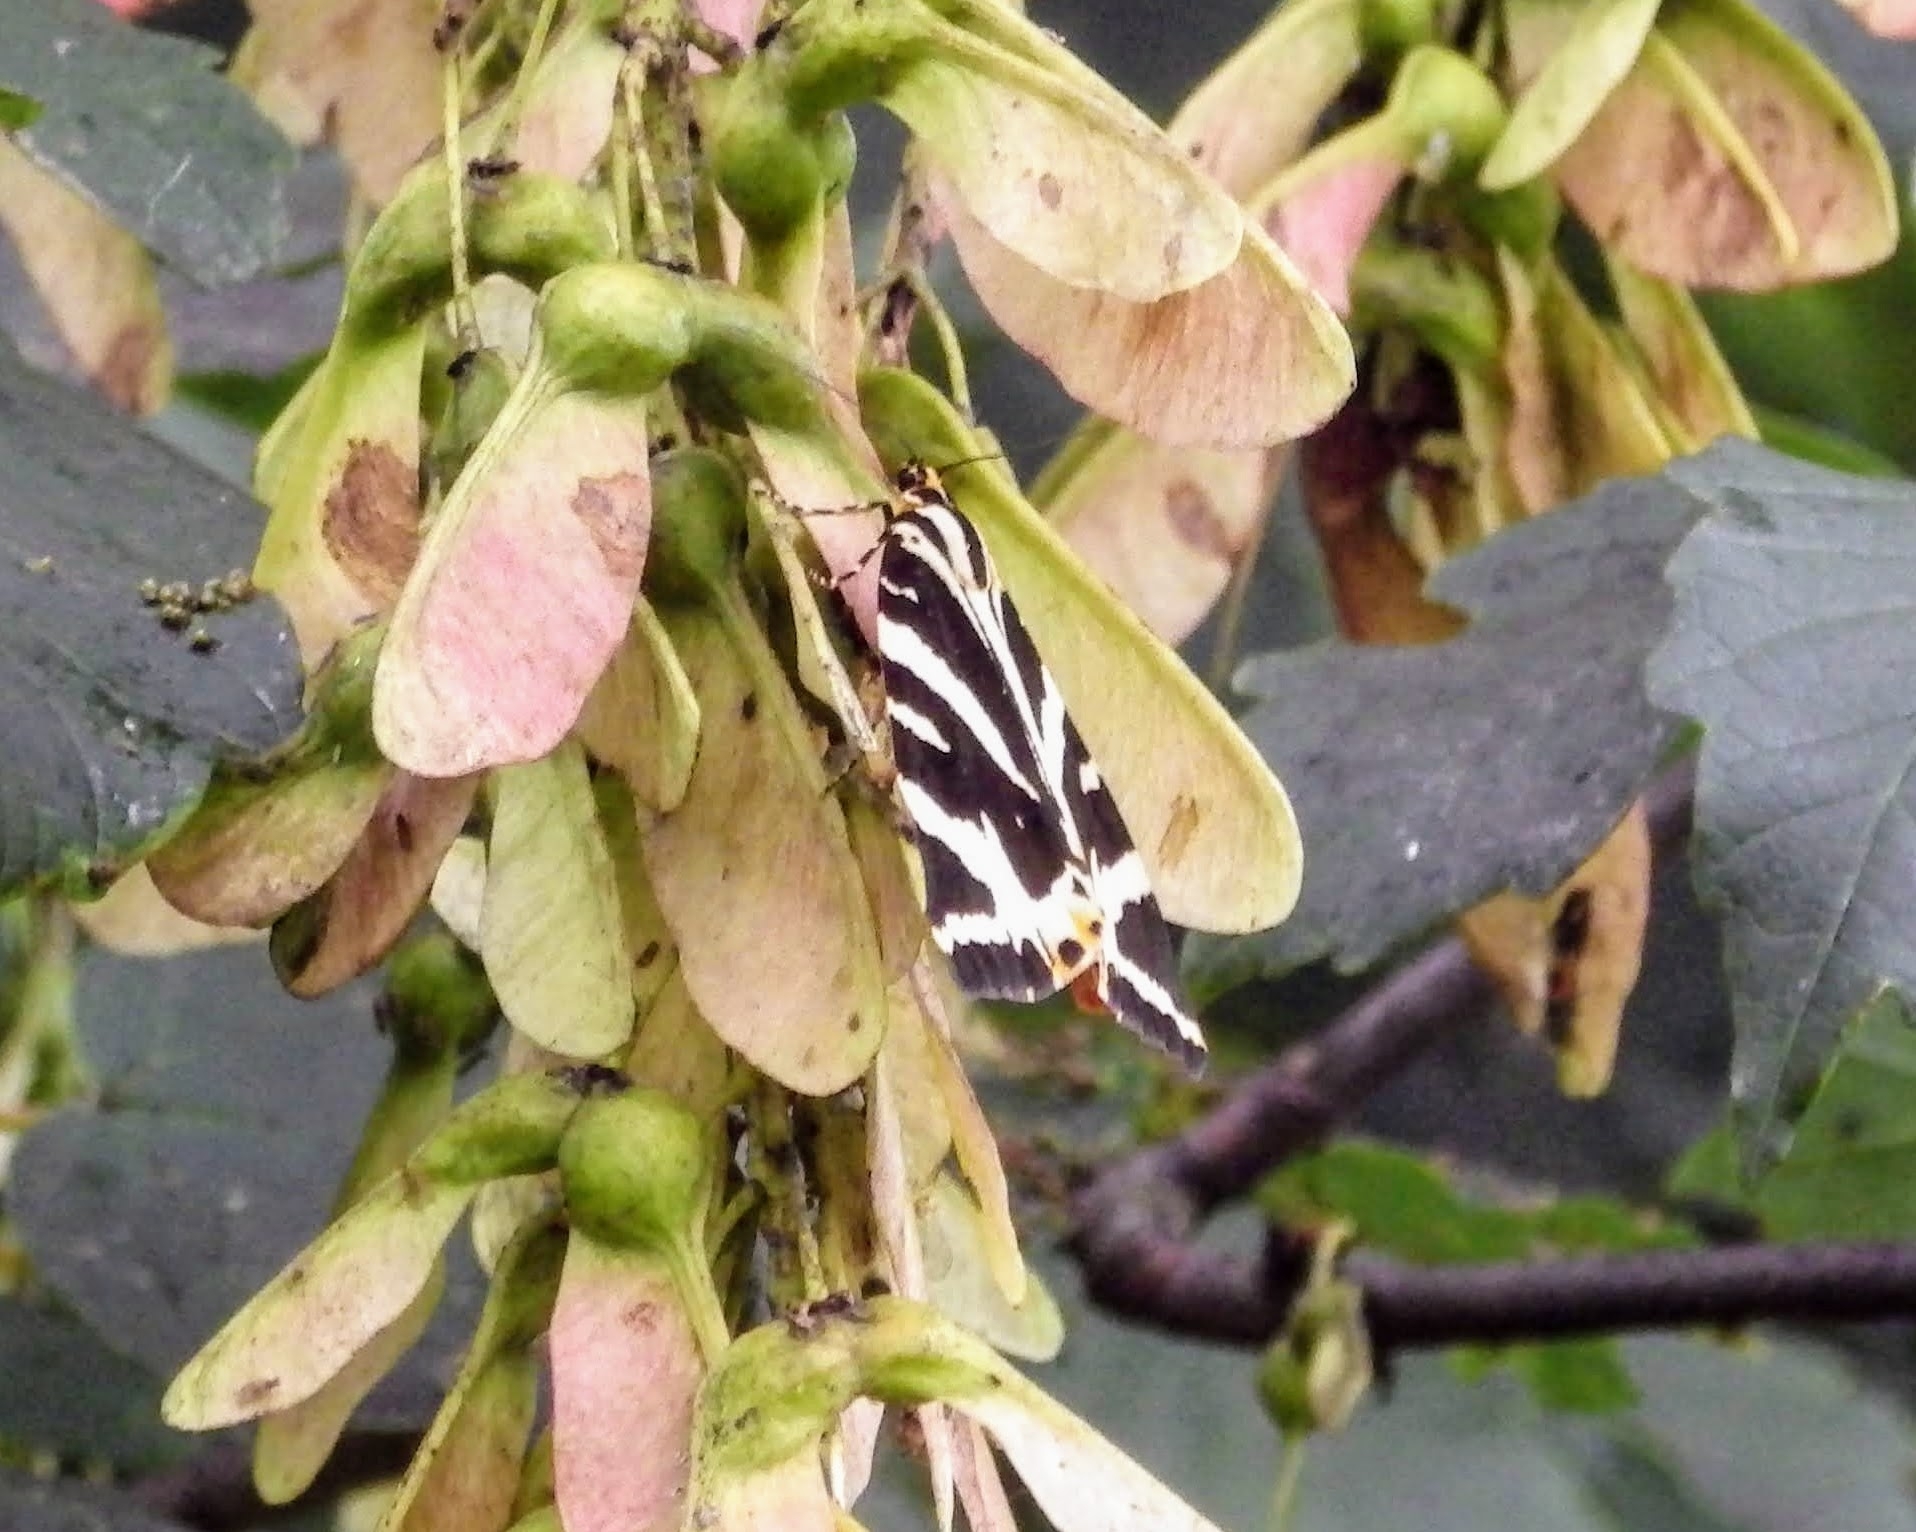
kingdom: Animalia
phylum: Arthropoda
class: Insecta
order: Lepidoptera
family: Erebidae
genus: Euplagia
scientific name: Euplagia quadripunctaria
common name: Jersey tiger
